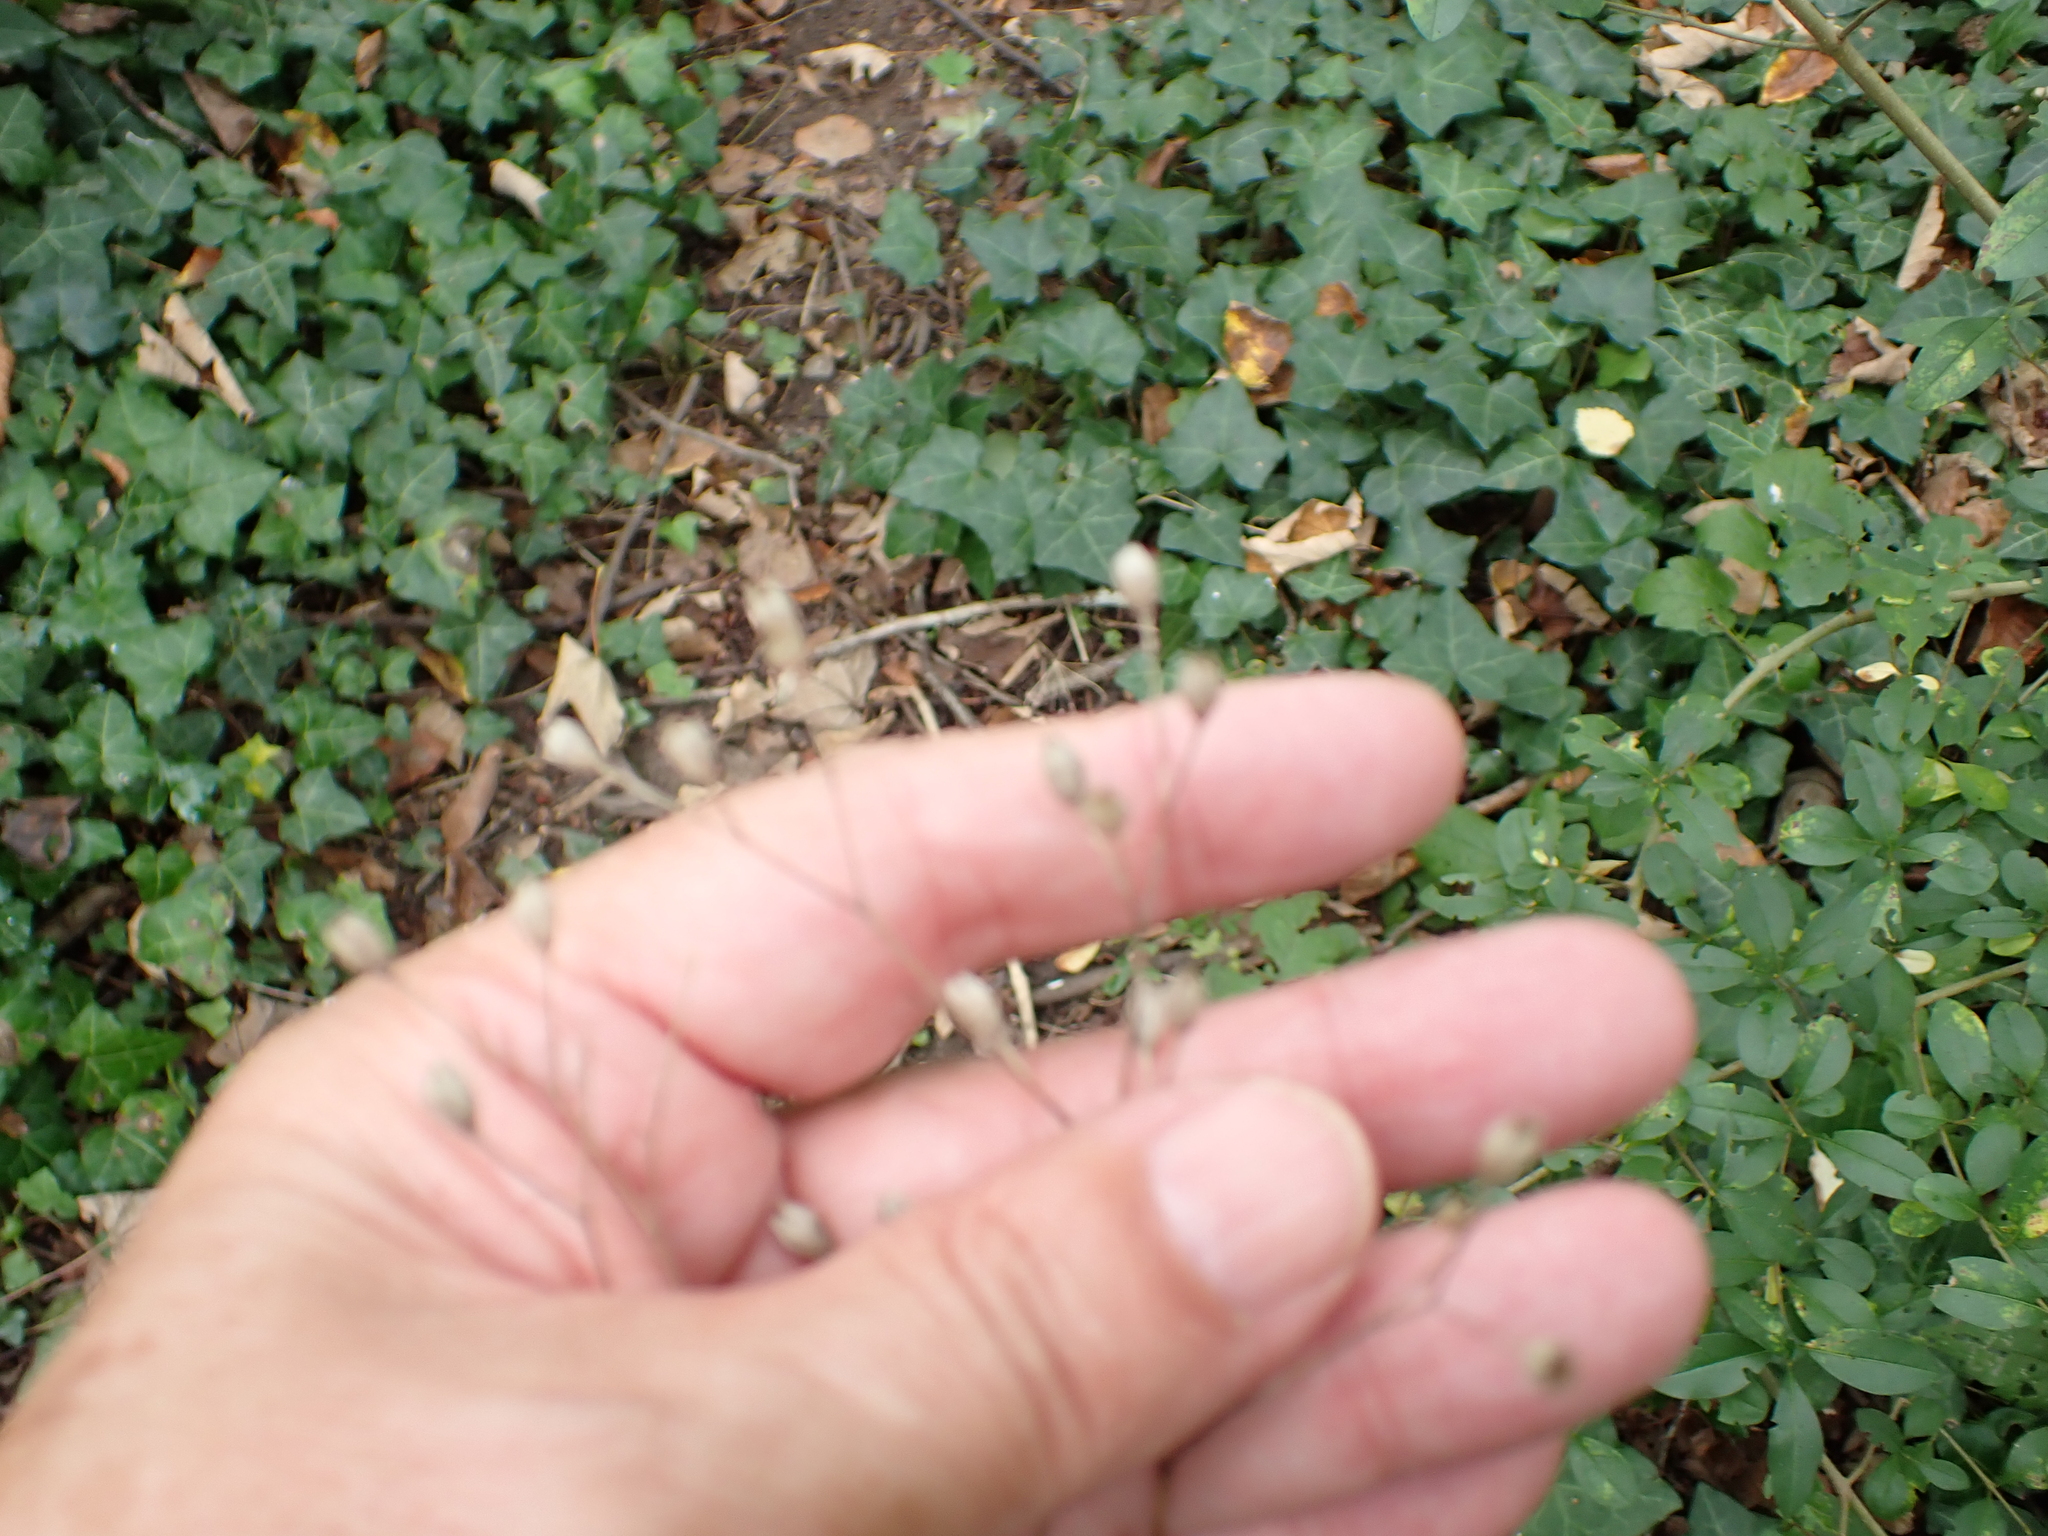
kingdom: Plantae
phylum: Tracheophyta
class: Magnoliopsida
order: Asterales
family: Asteraceae
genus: Lapsana
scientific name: Lapsana communis
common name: Nipplewort
